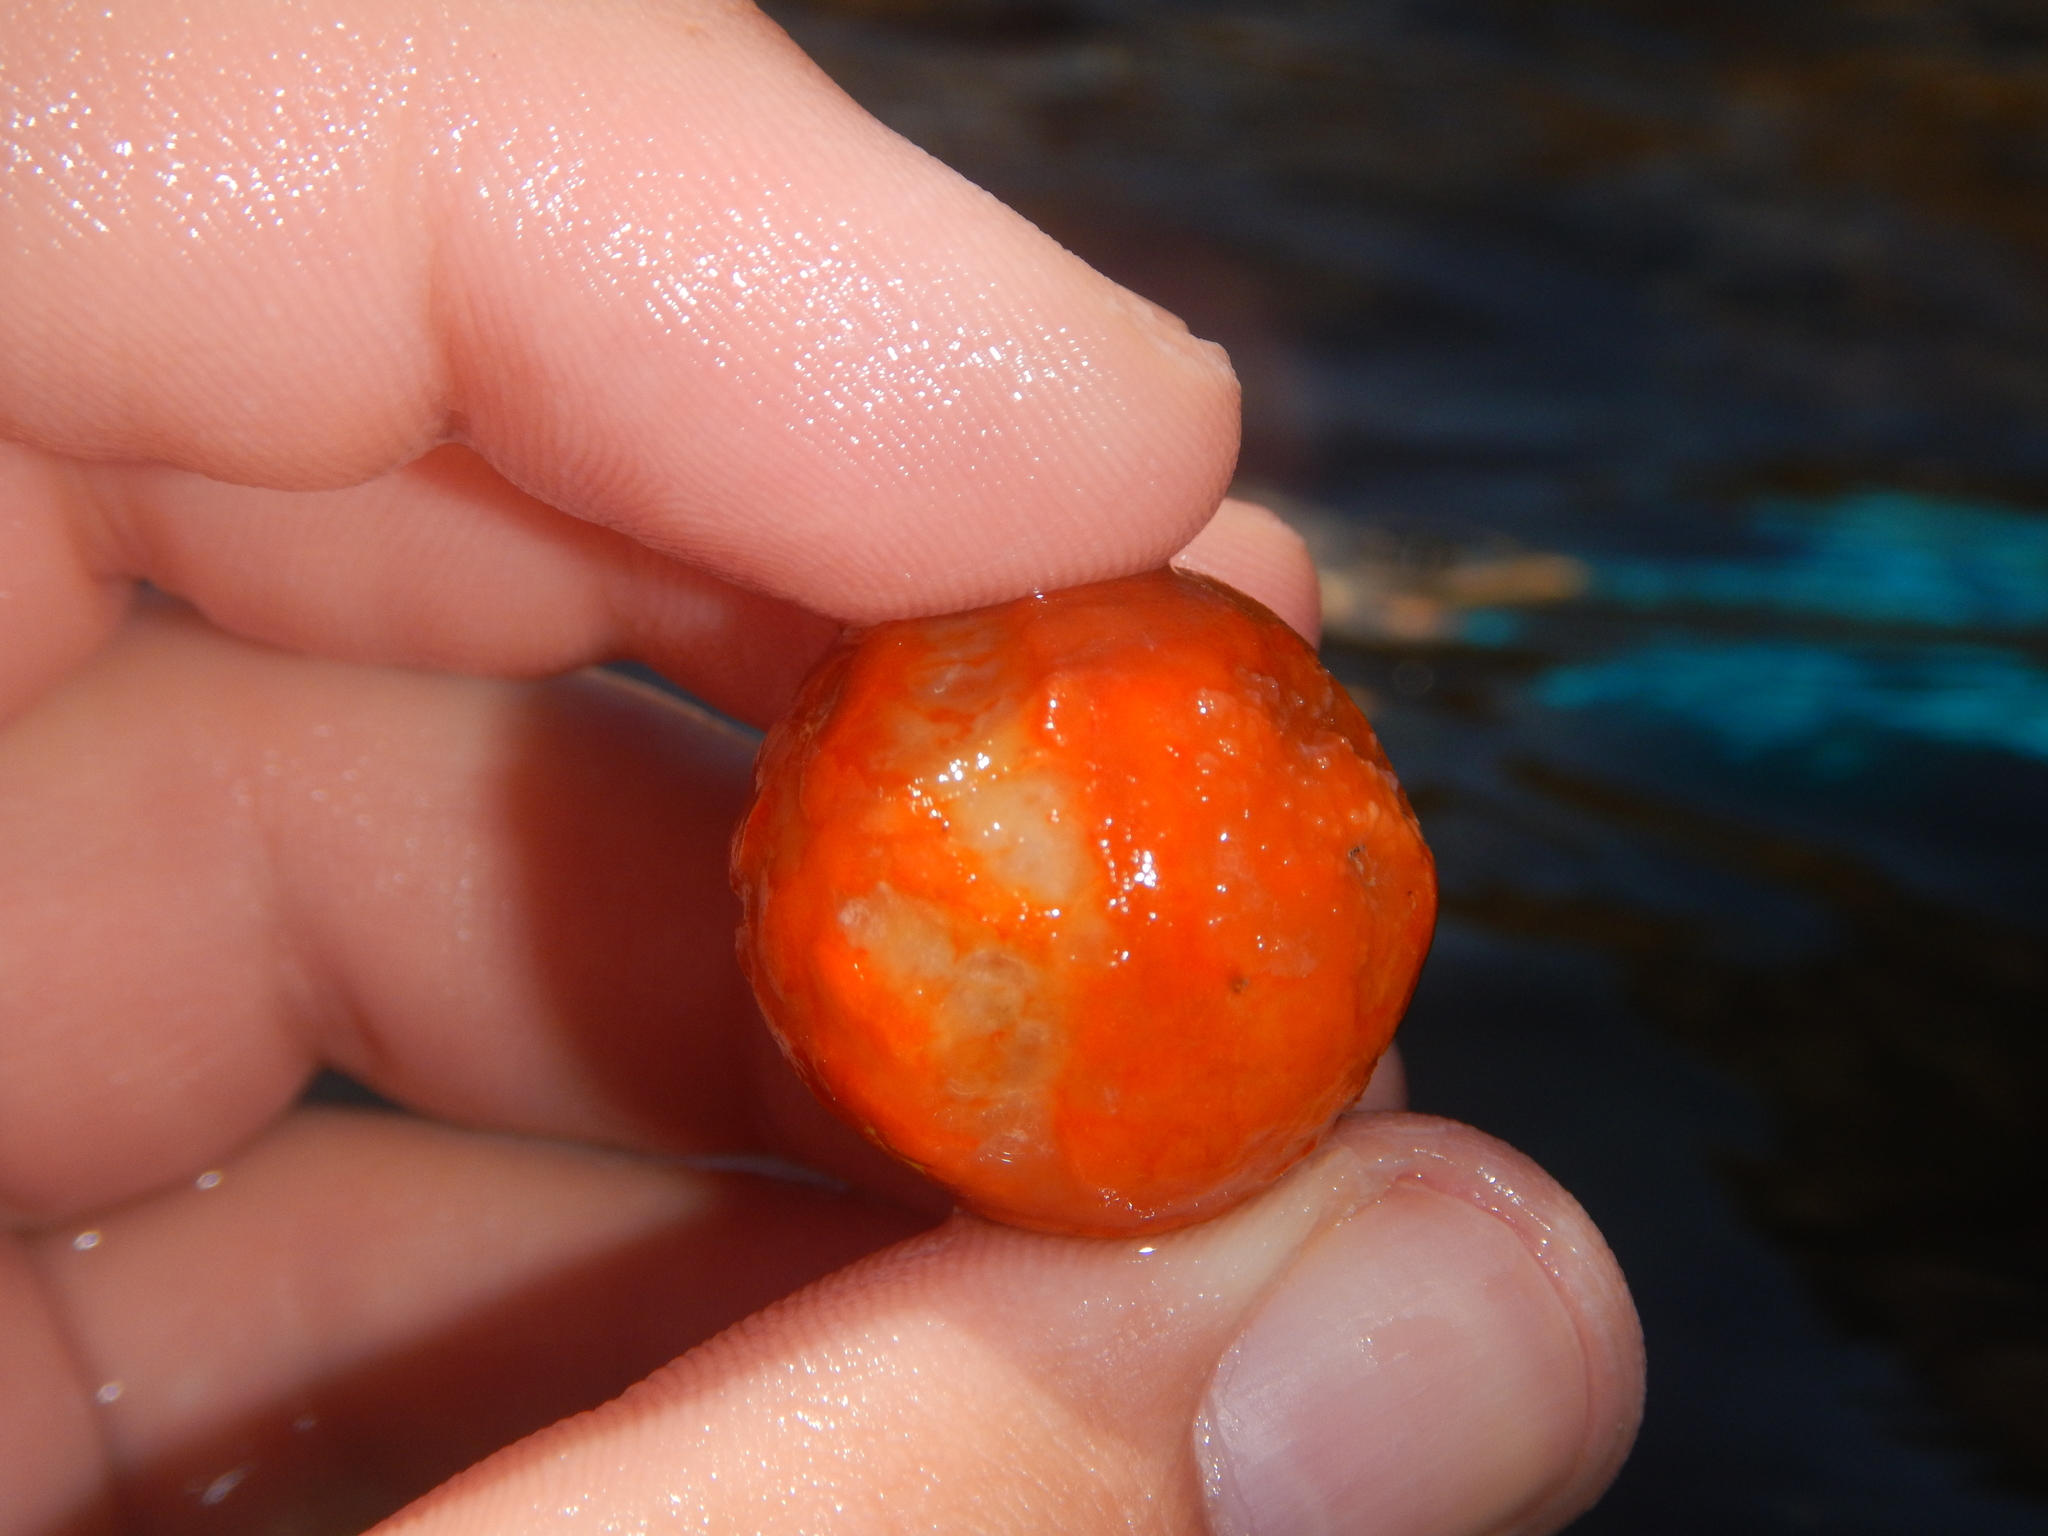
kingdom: Animalia
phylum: Porifera
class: Demospongiae
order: Tethyida
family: Tethyidae
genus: Tethya
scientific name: Tethya aurantium
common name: Golf ball sponge
